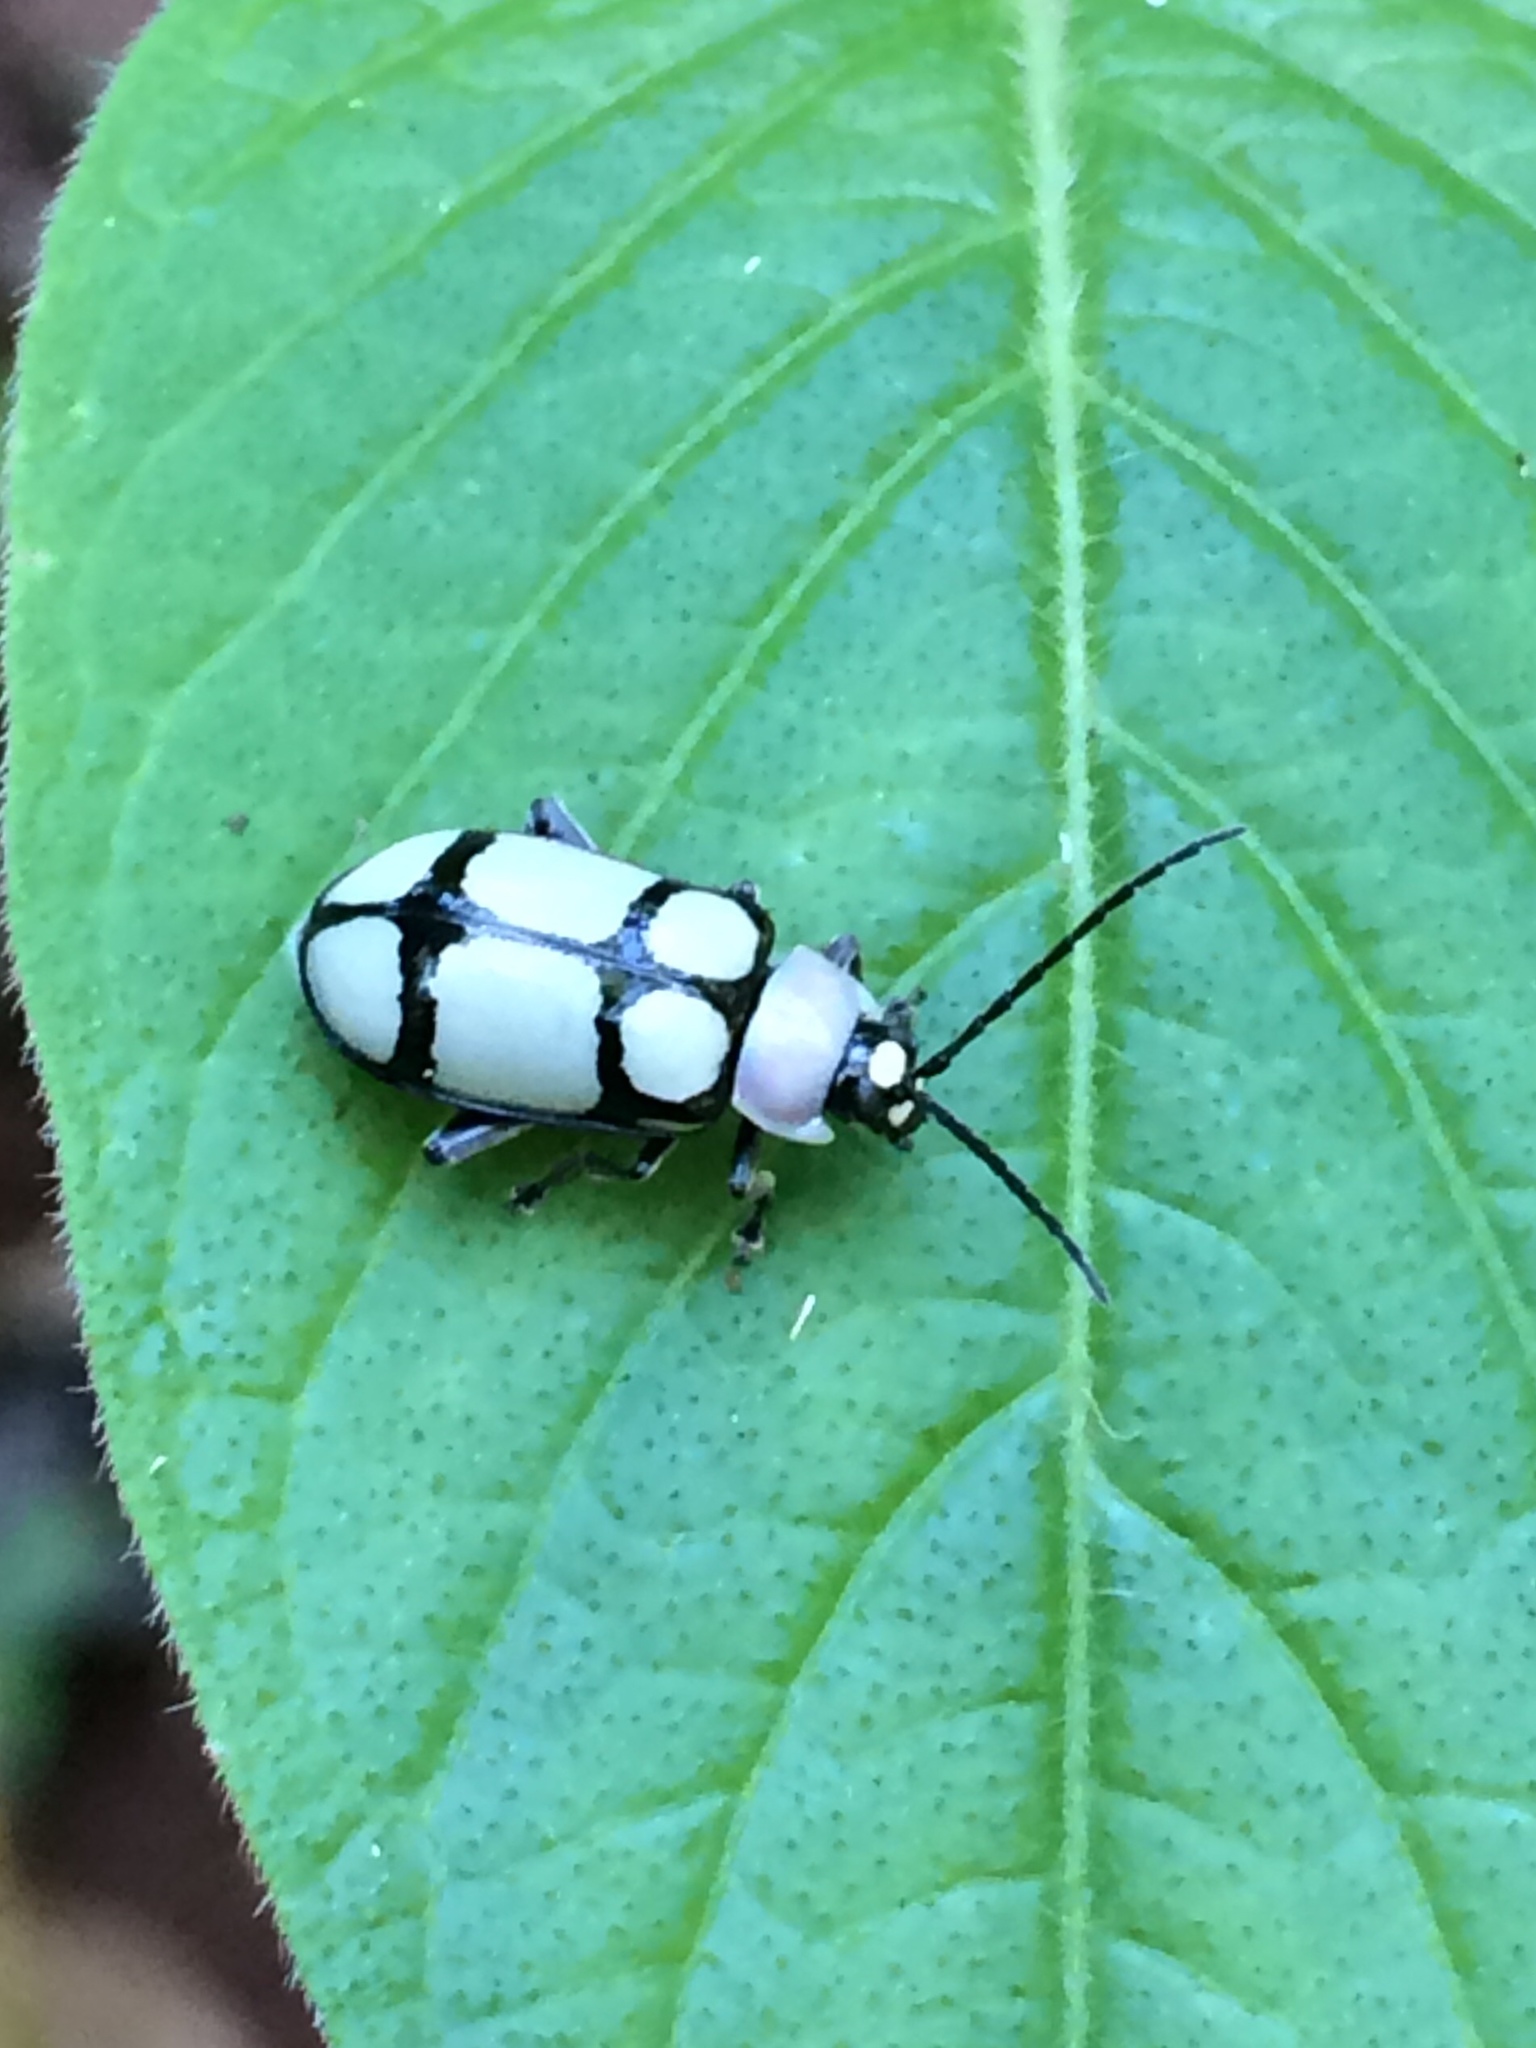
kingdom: Animalia
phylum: Arthropoda
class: Insecta
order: Coleoptera
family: Chrysomelidae
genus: Omophoita
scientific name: Omophoita
